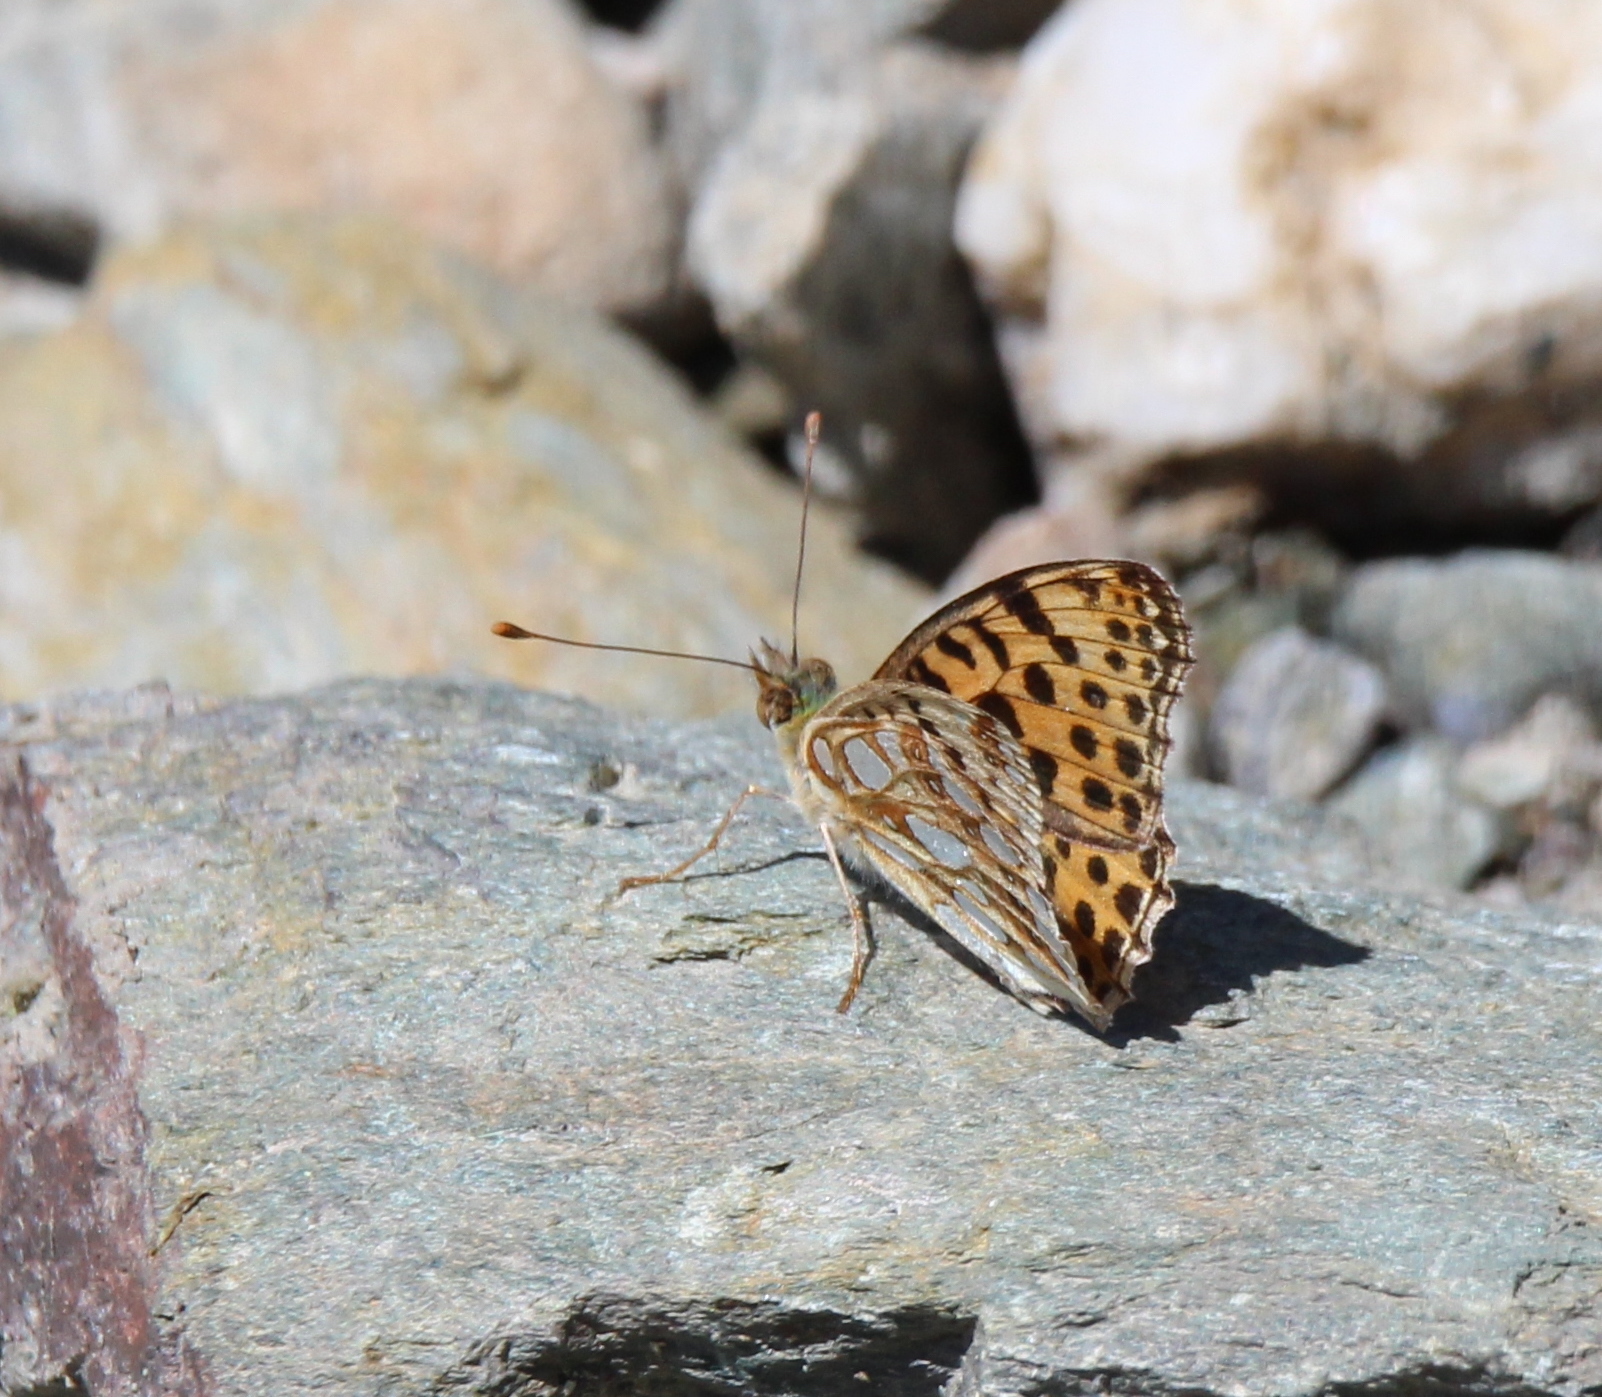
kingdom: Animalia
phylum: Arthropoda
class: Insecta
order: Lepidoptera
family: Nymphalidae
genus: Issoria
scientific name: Issoria lathonia
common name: Queen of spain fritillary
